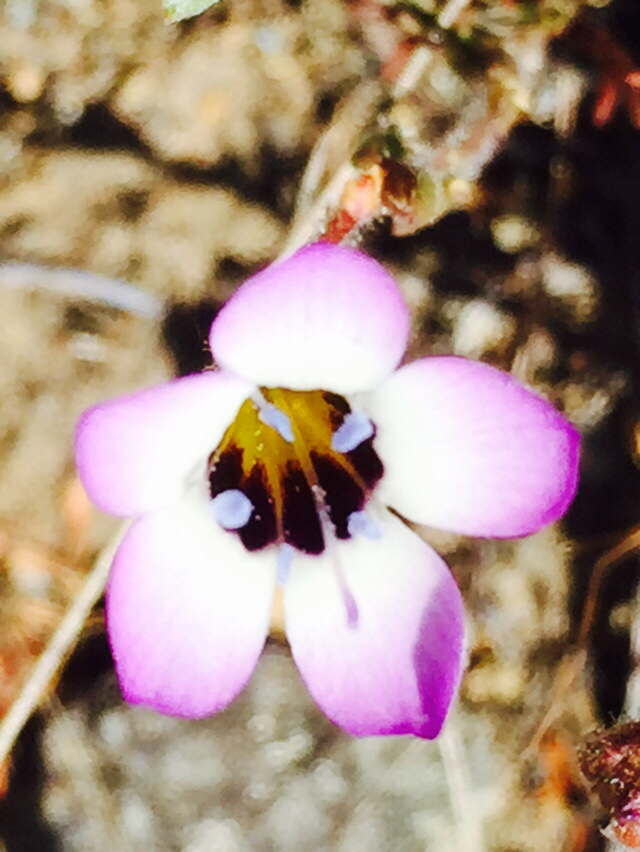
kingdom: Plantae
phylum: Tracheophyta
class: Magnoliopsida
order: Ericales
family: Polemoniaceae
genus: Gilia
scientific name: Gilia tricolor
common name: Bird's-eyes
